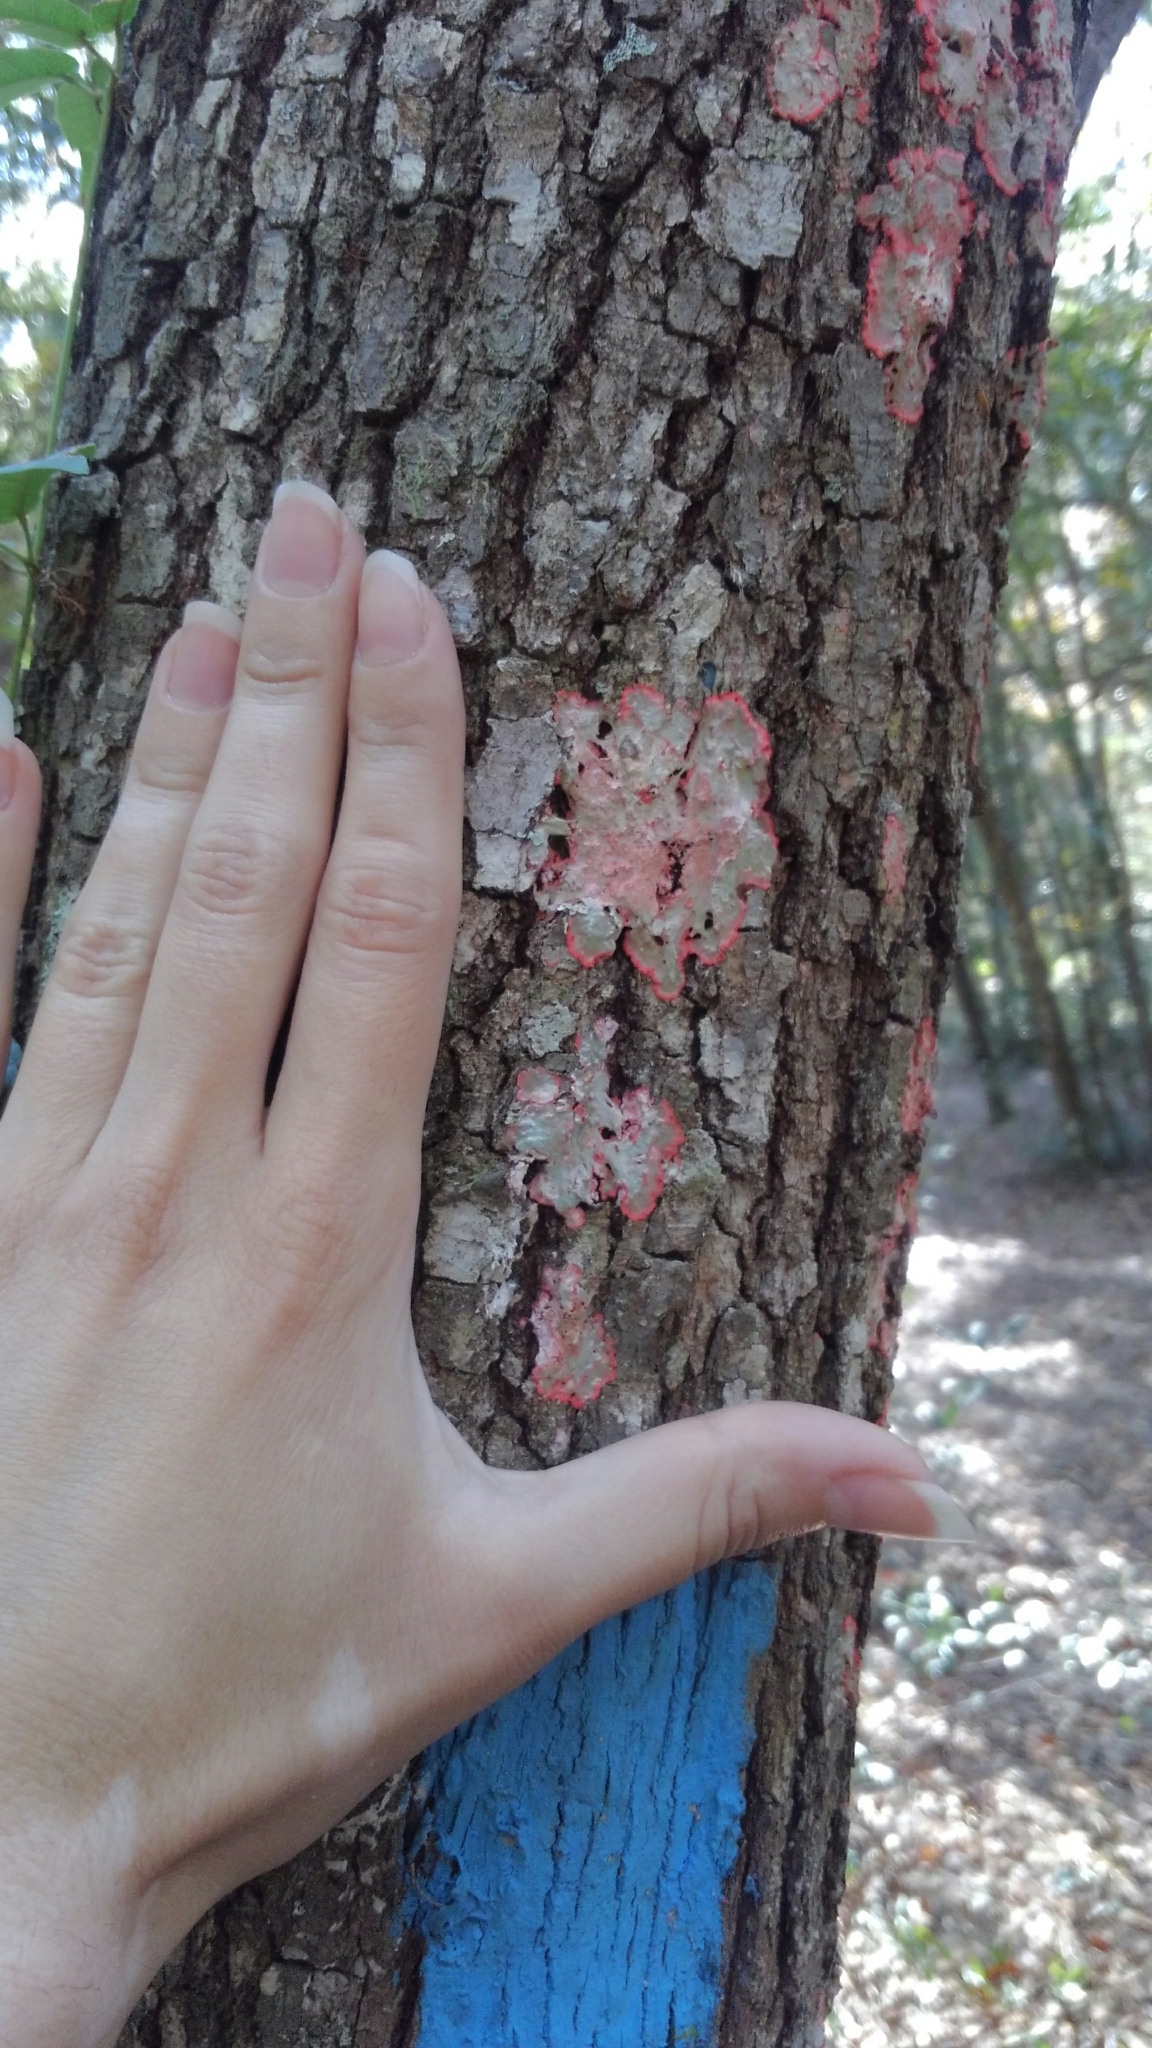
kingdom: Fungi
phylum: Ascomycota
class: Arthoniomycetes
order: Arthoniales
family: Arthoniaceae
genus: Herpothallon
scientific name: Herpothallon rubrocinctum
